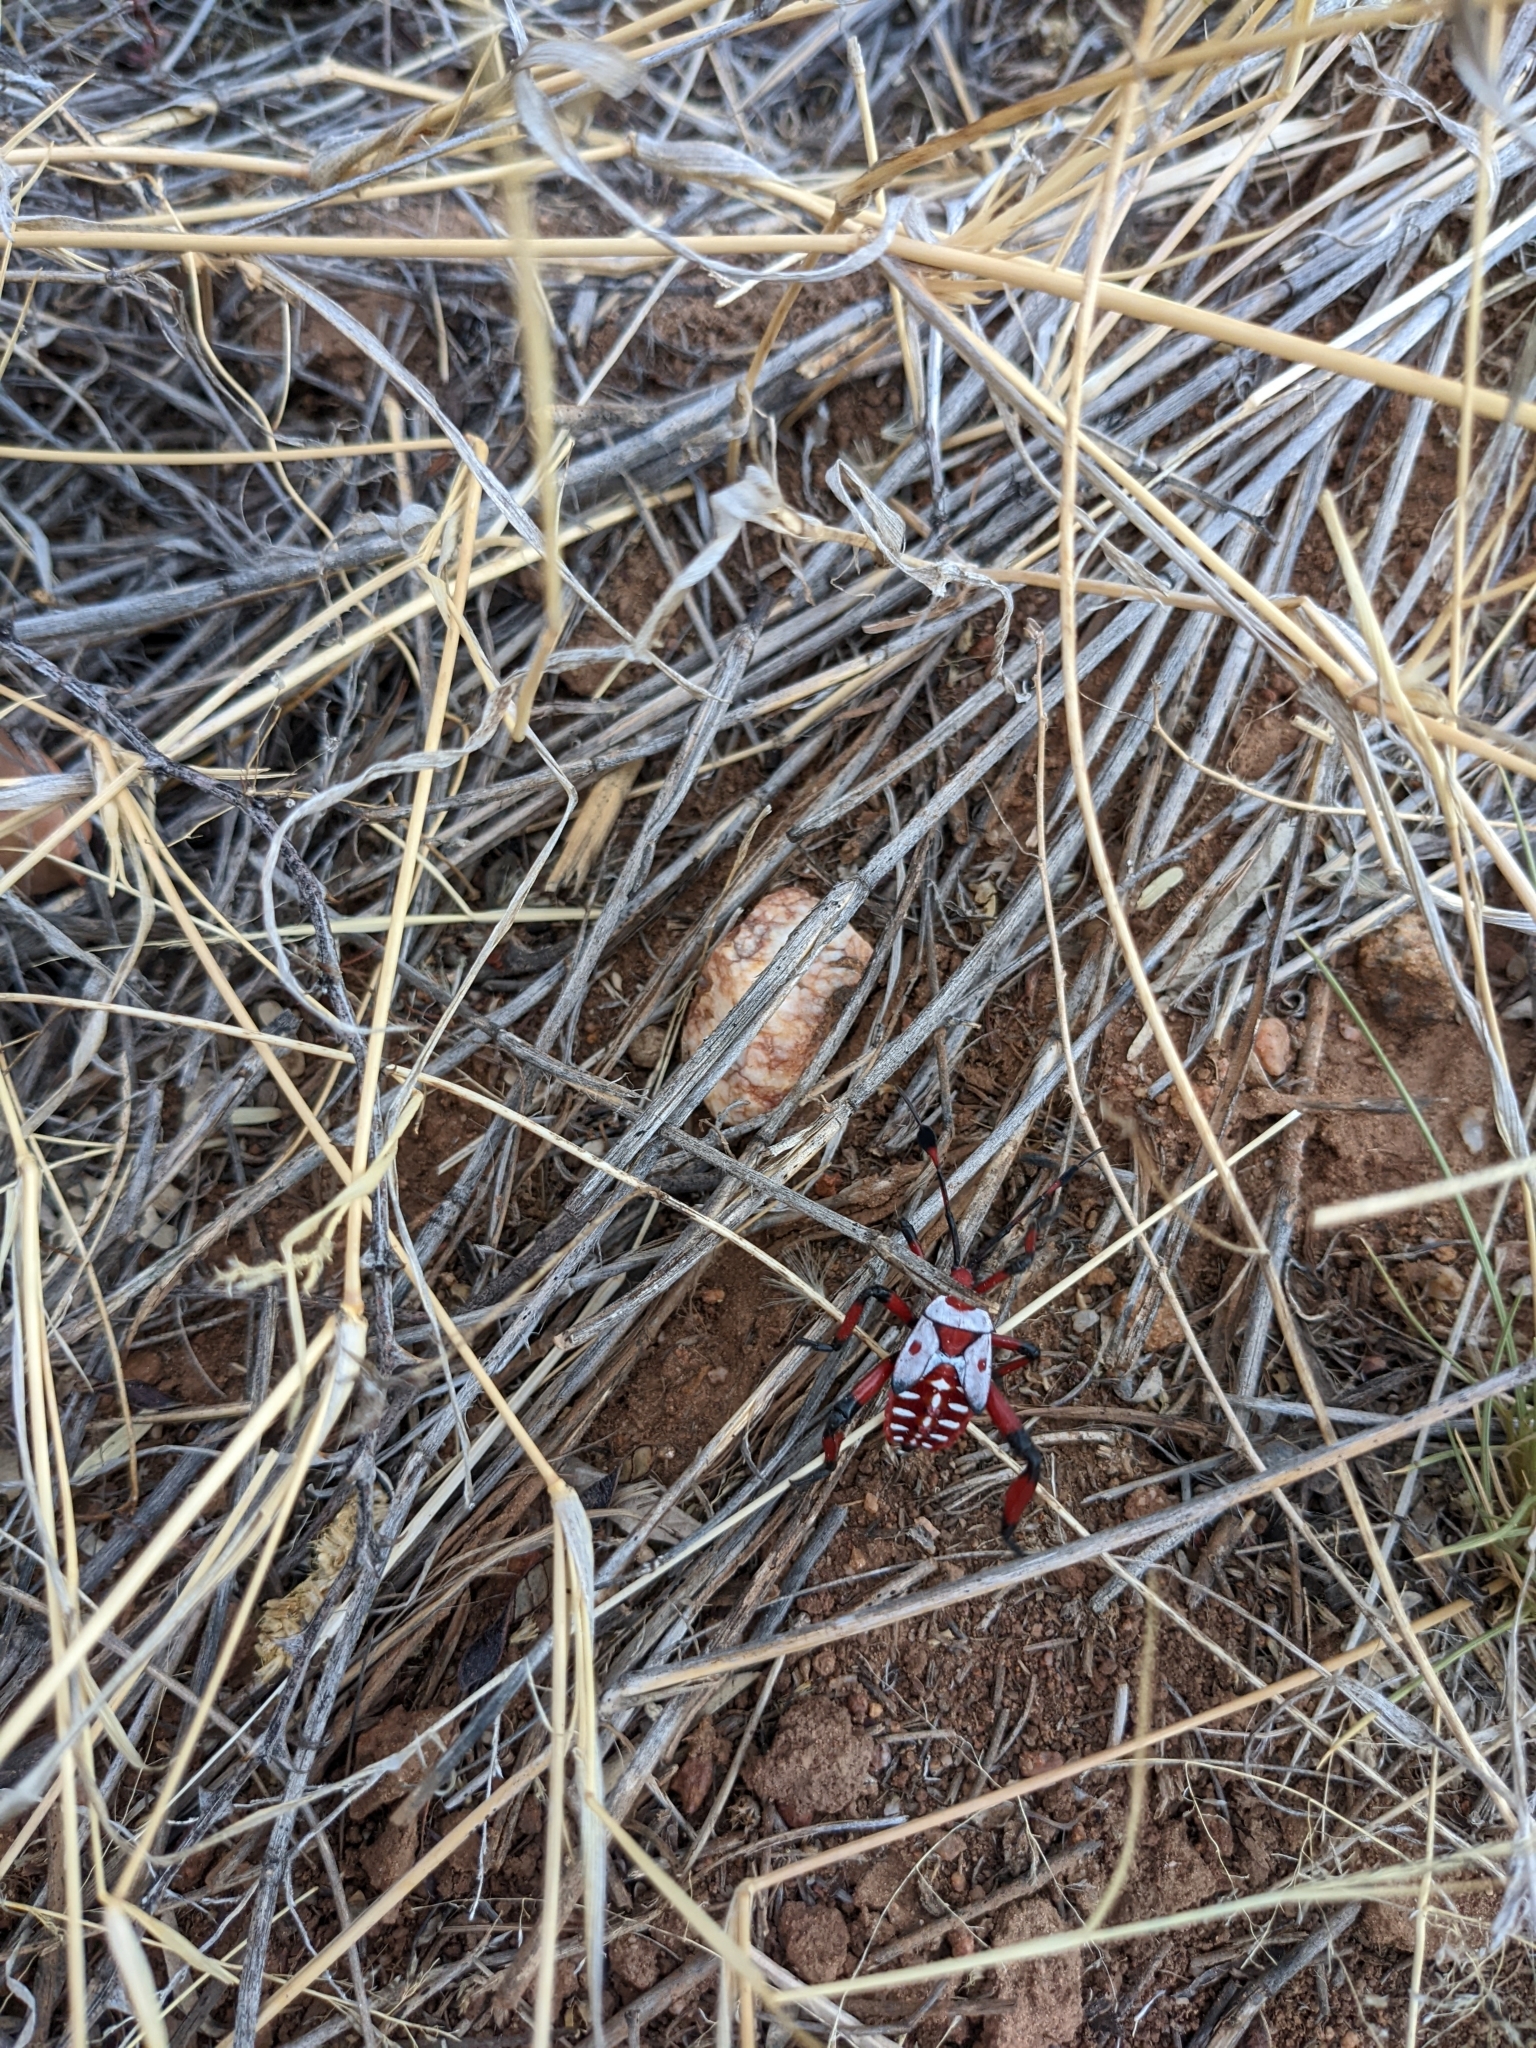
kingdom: Animalia
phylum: Arthropoda
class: Insecta
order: Hemiptera
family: Coreidae
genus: Thasus
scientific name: Thasus neocalifornicus
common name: Giant mesquite bug
